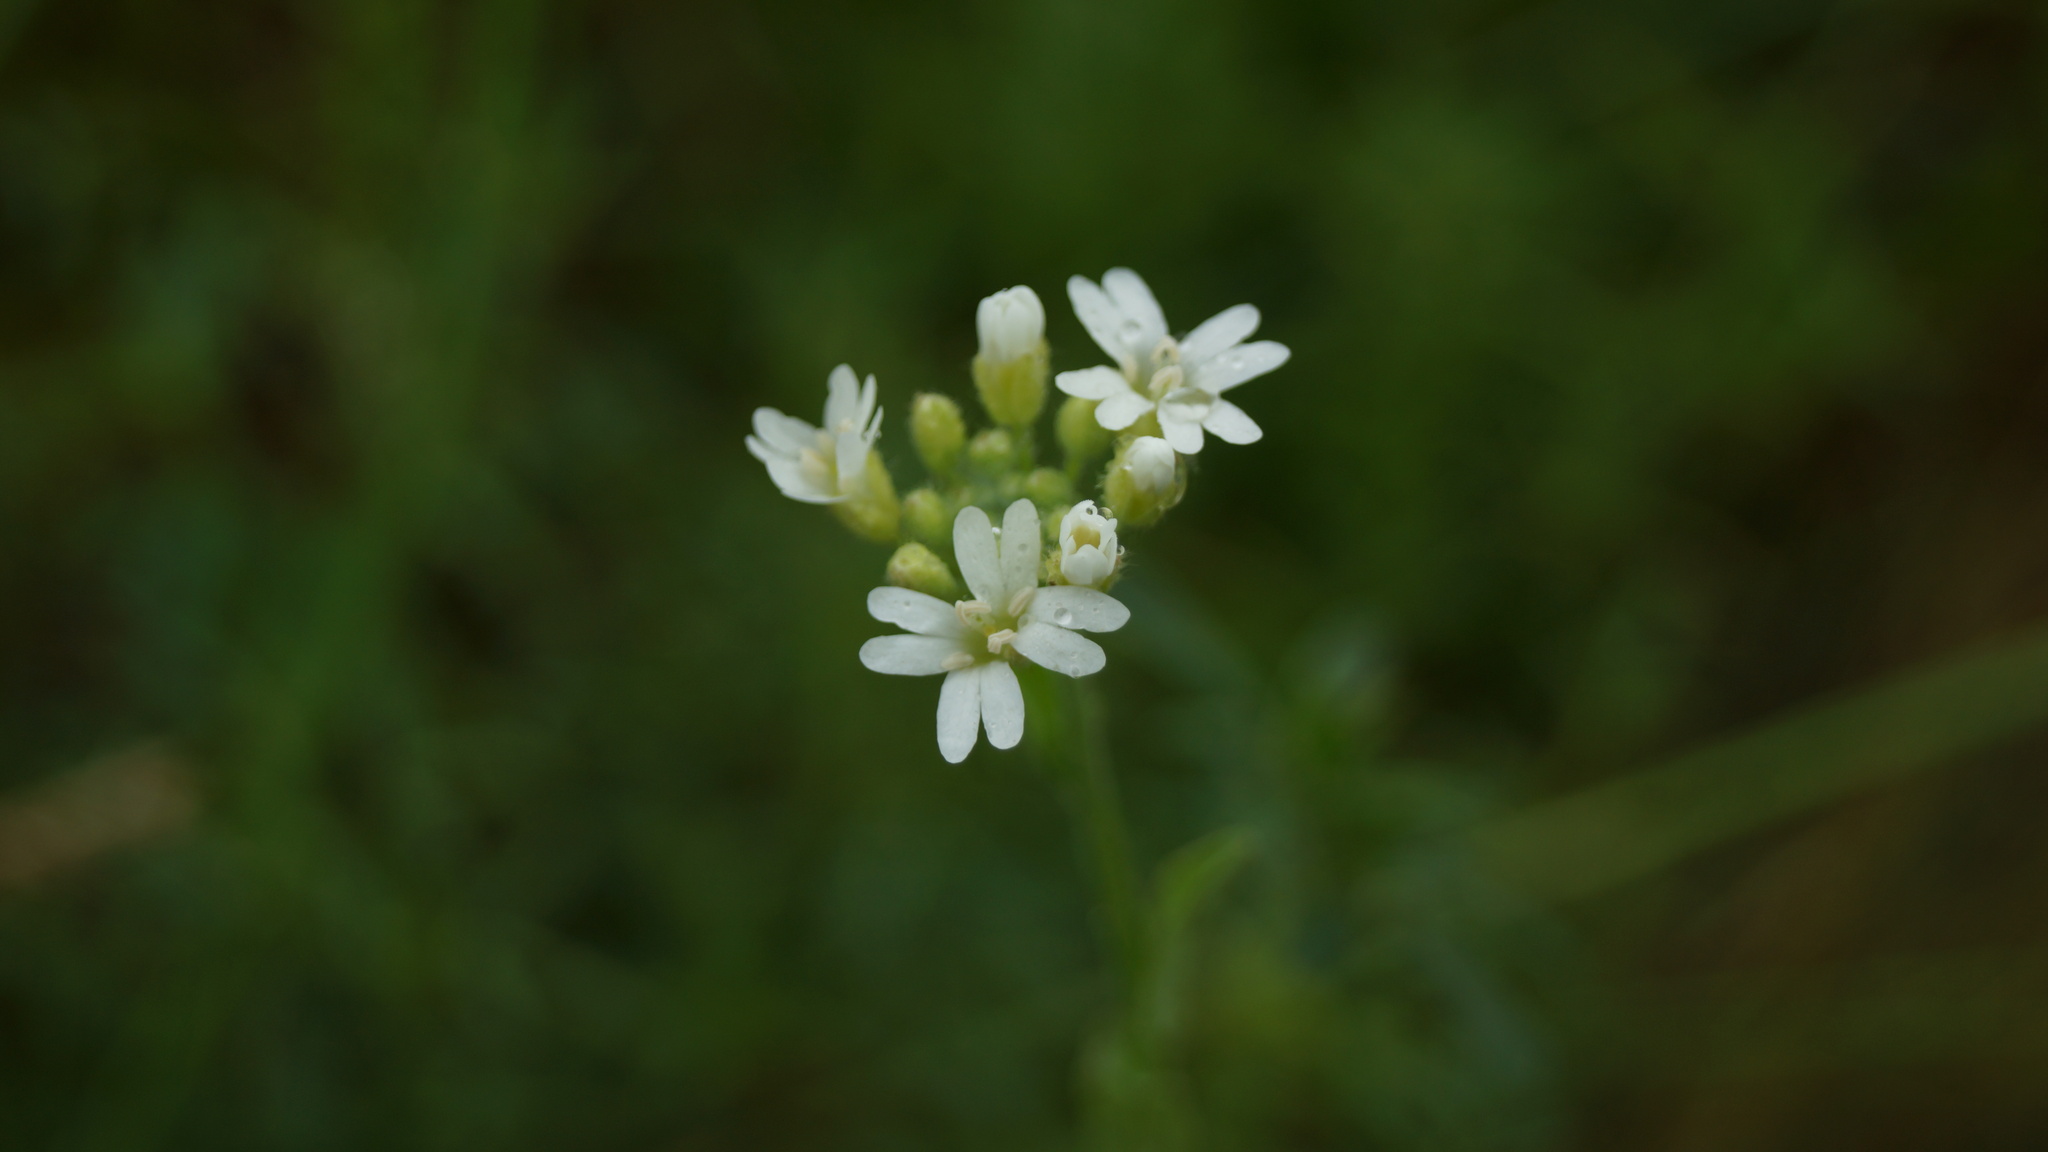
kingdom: Plantae
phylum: Tracheophyta
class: Magnoliopsida
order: Brassicales
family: Brassicaceae
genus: Berteroa
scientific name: Berteroa incana
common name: Hoary alison
